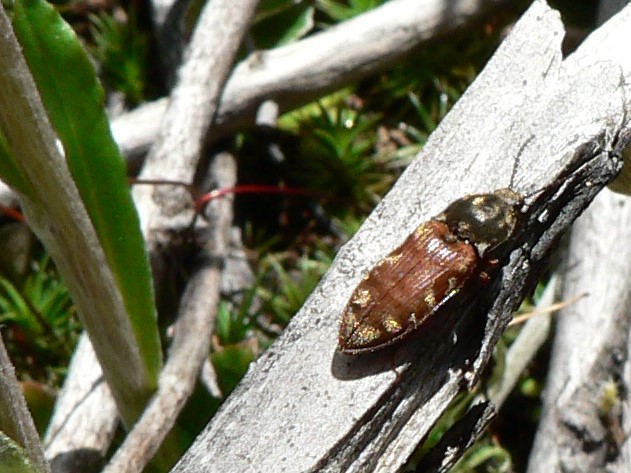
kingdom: Animalia
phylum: Arthropoda
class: Insecta
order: Coleoptera
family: Elateridae
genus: Prosternon
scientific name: Prosternon bombycinum
